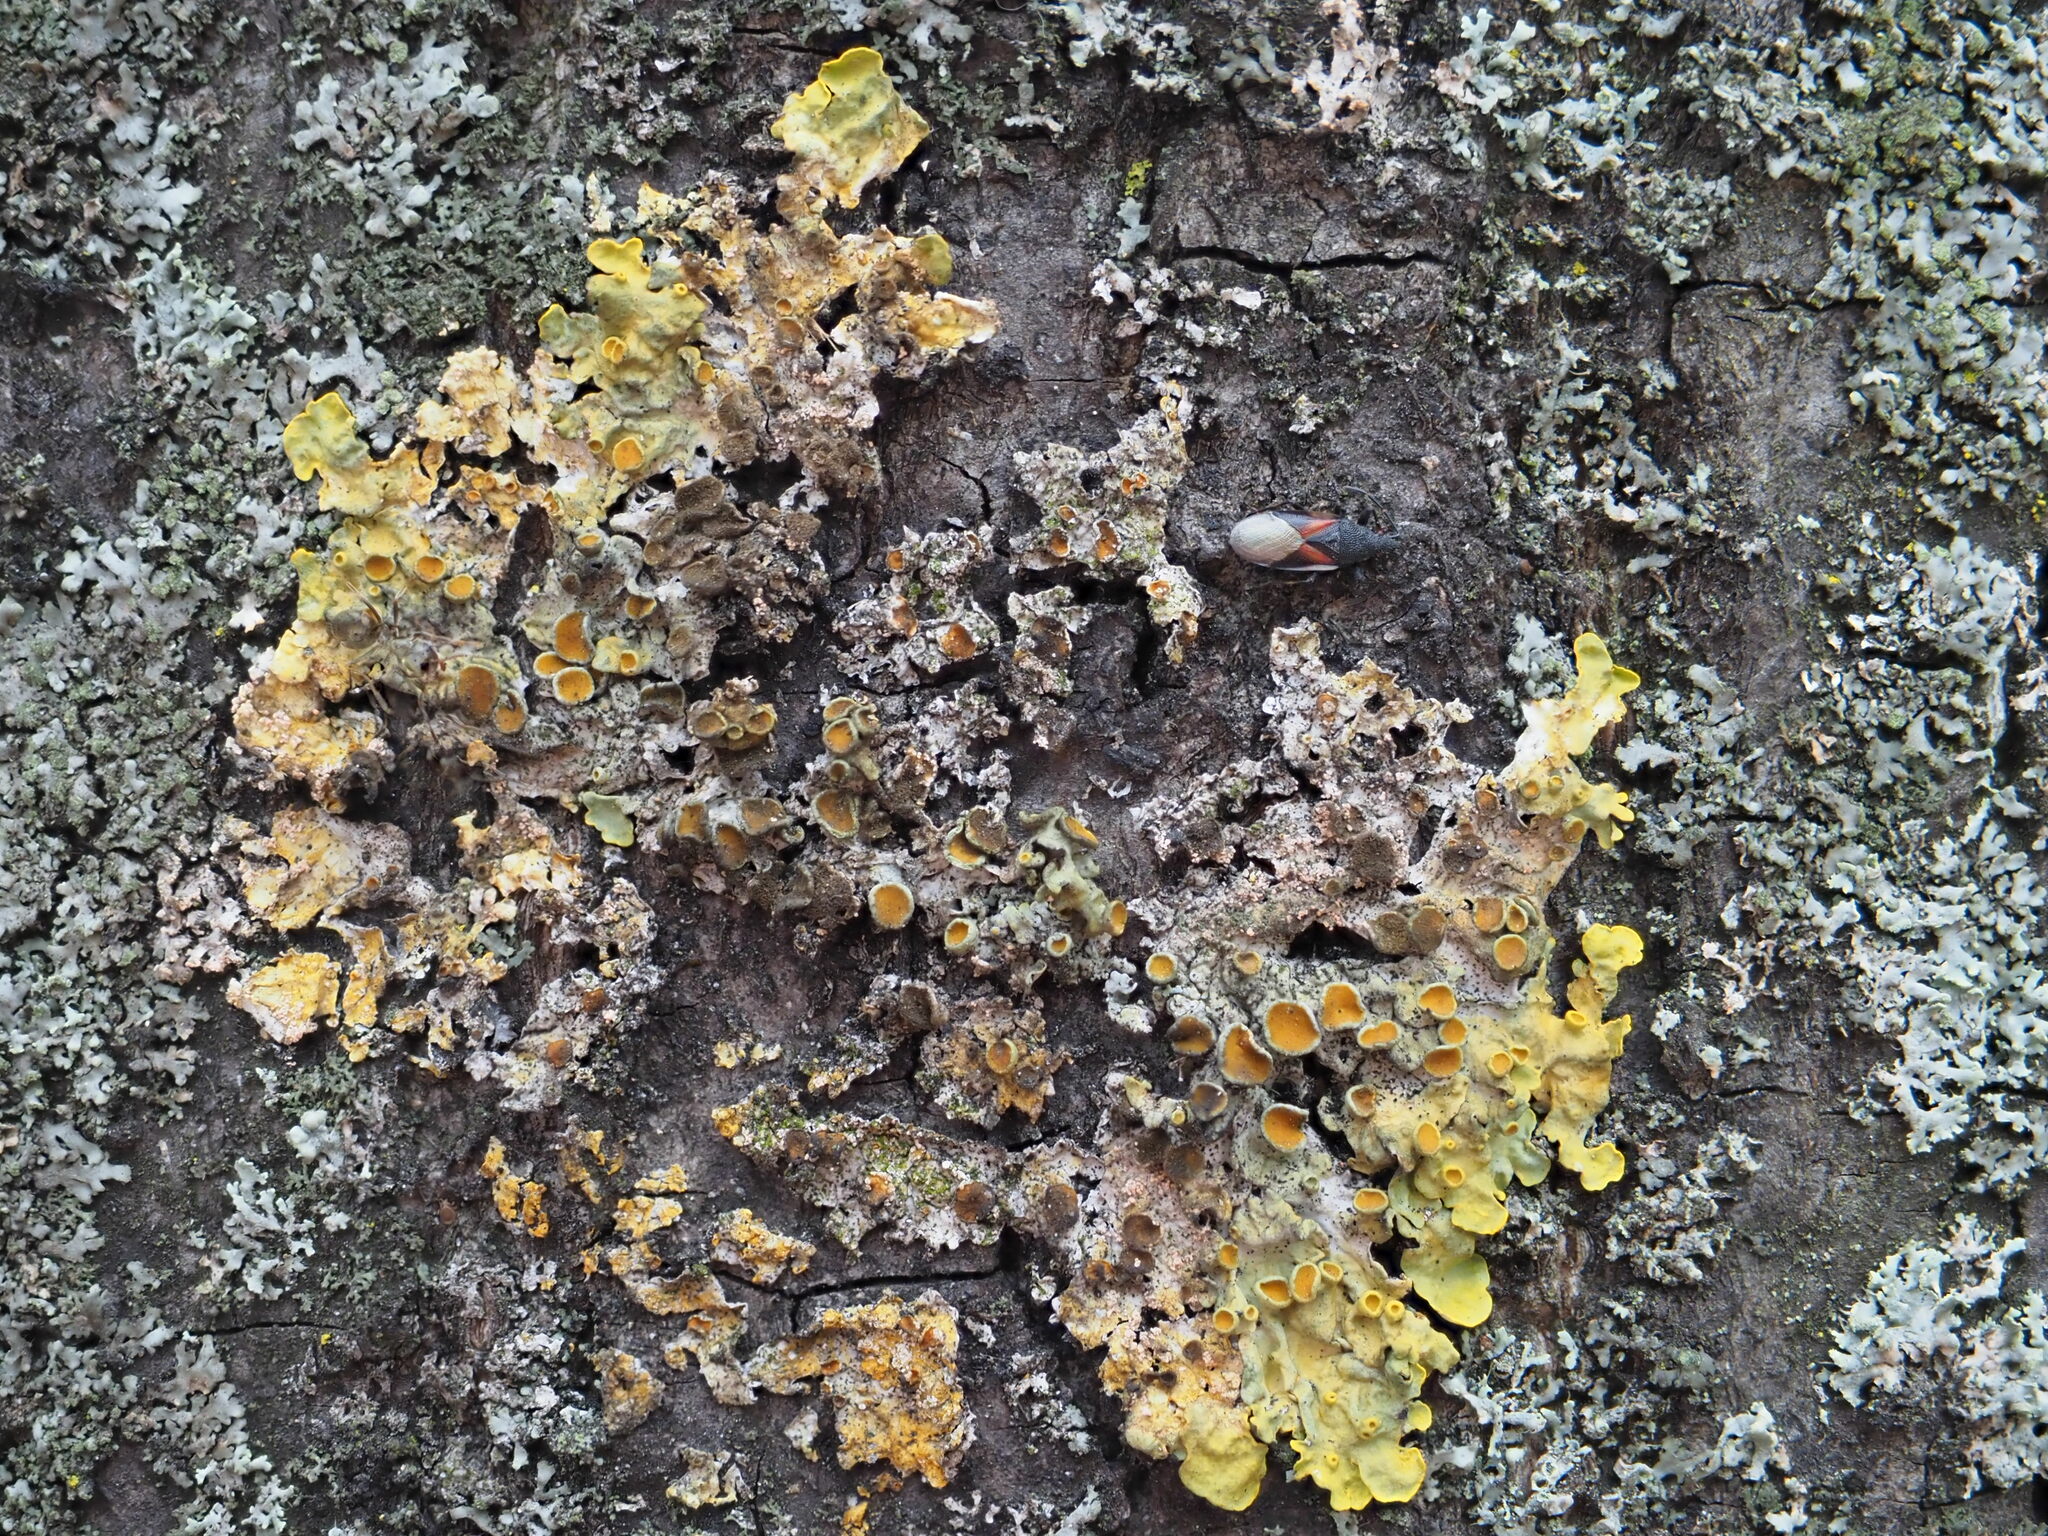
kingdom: Fungi
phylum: Ascomycota
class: Lecanoromycetes
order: Teloschistales
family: Teloschistaceae
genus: Xanthoria
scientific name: Xanthoria parietina
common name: Common orange lichen
